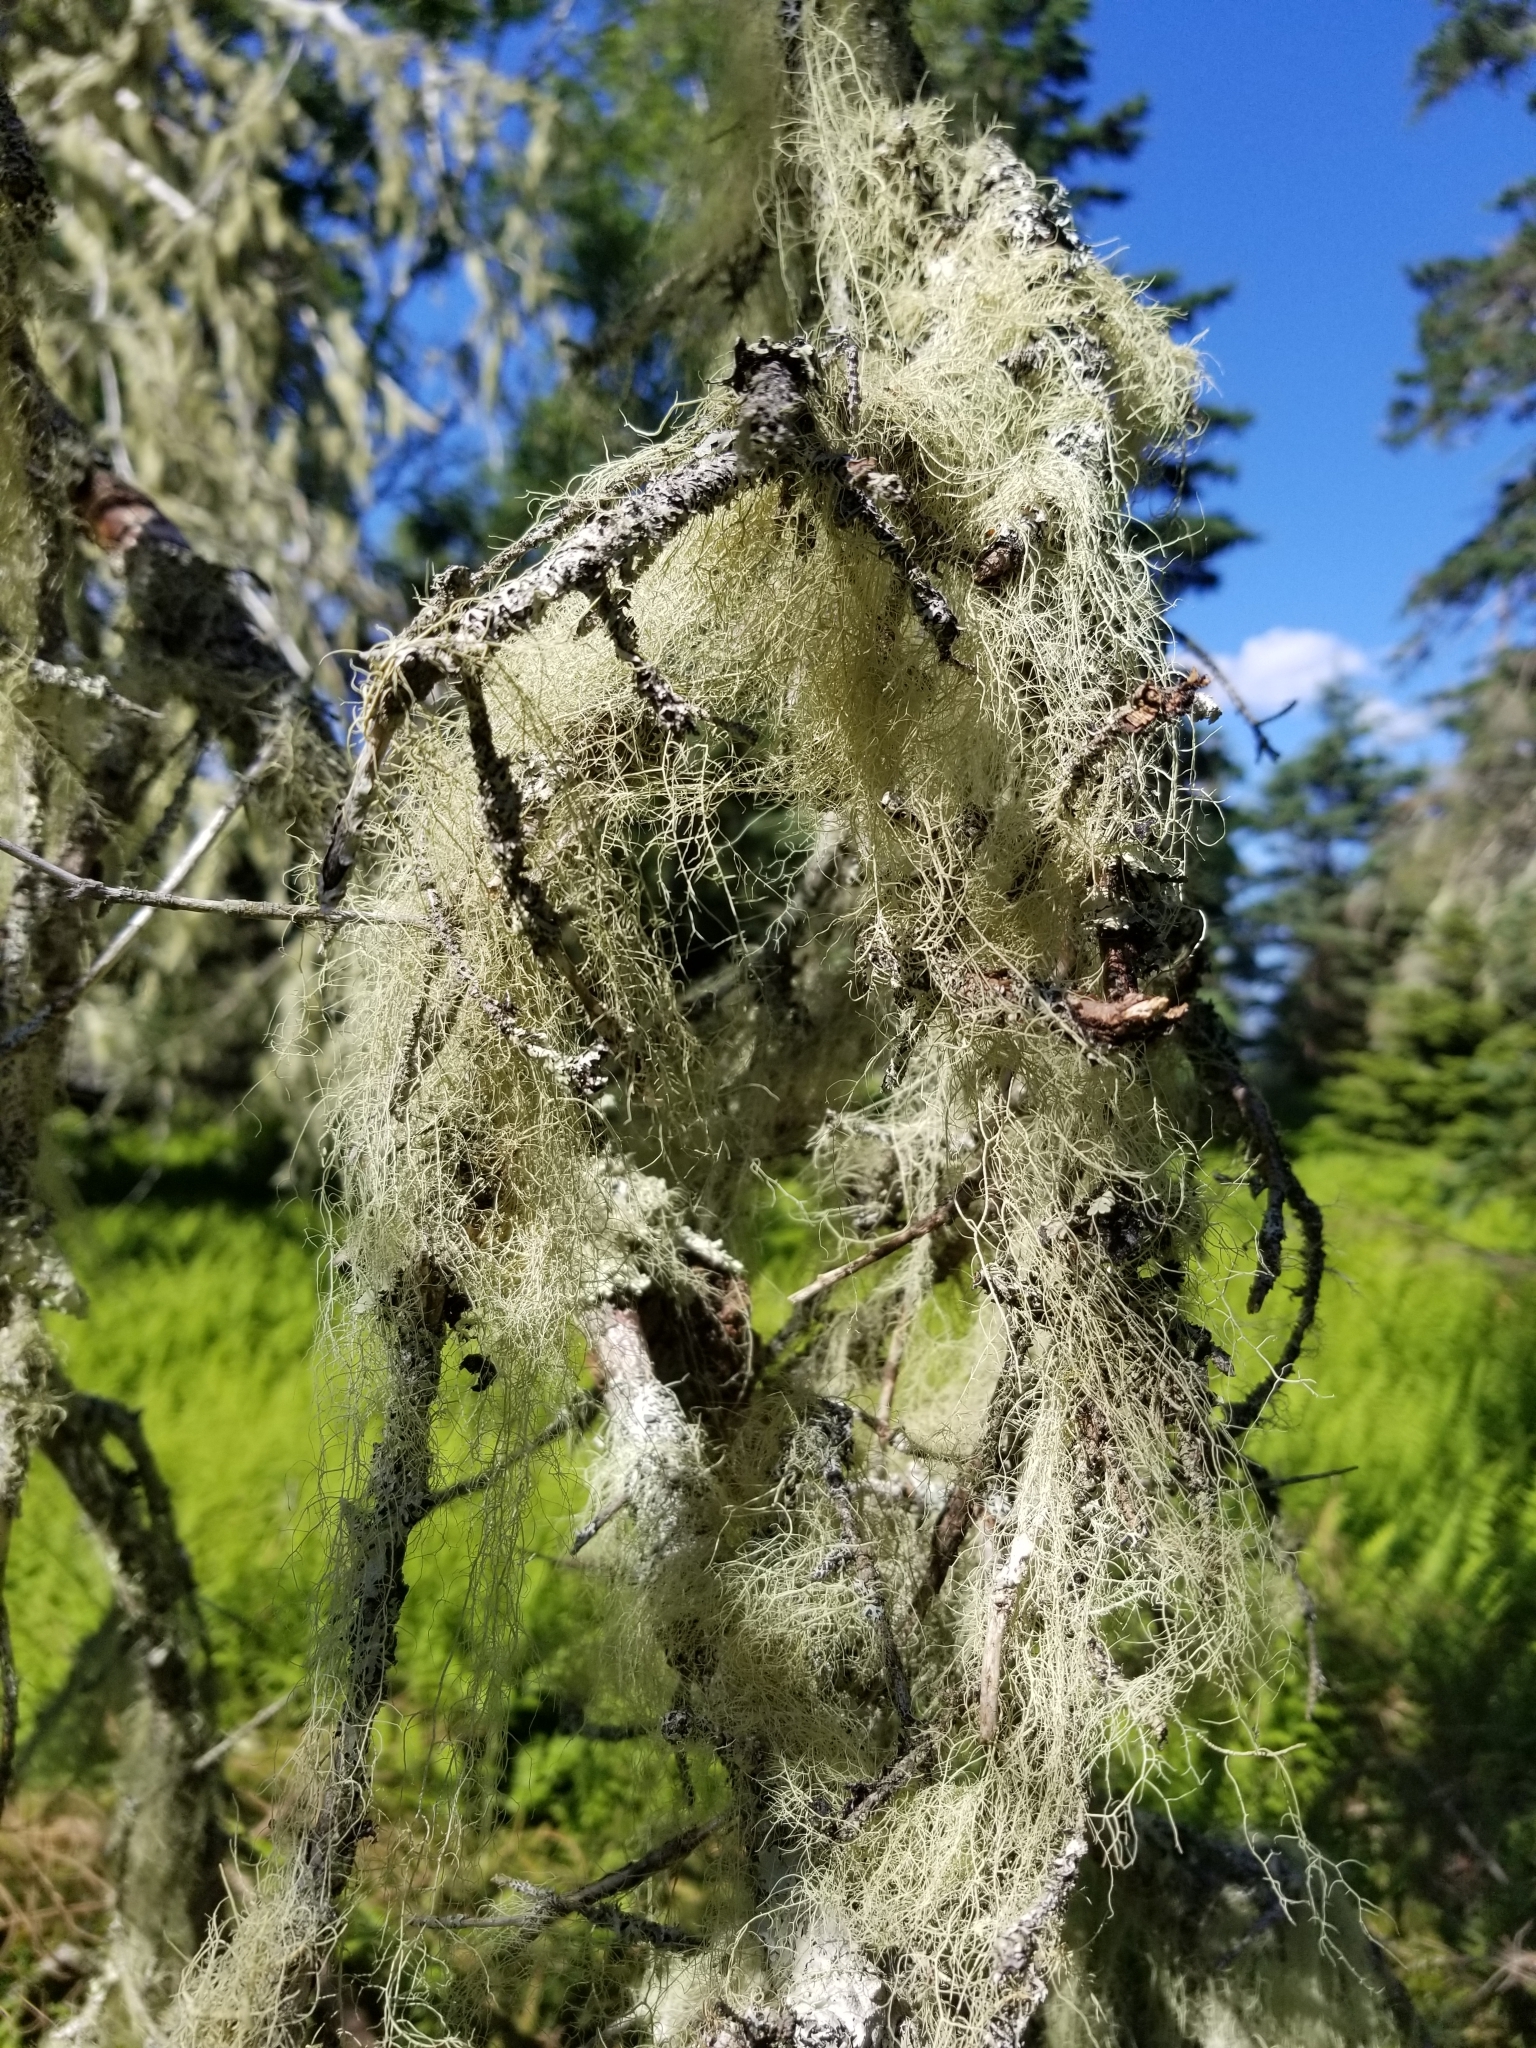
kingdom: Fungi
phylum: Ascomycota
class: Lecanoromycetes
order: Lecanorales
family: Parmeliaceae
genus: Usnea
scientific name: Usnea trichodea
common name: Bony beard lichen
